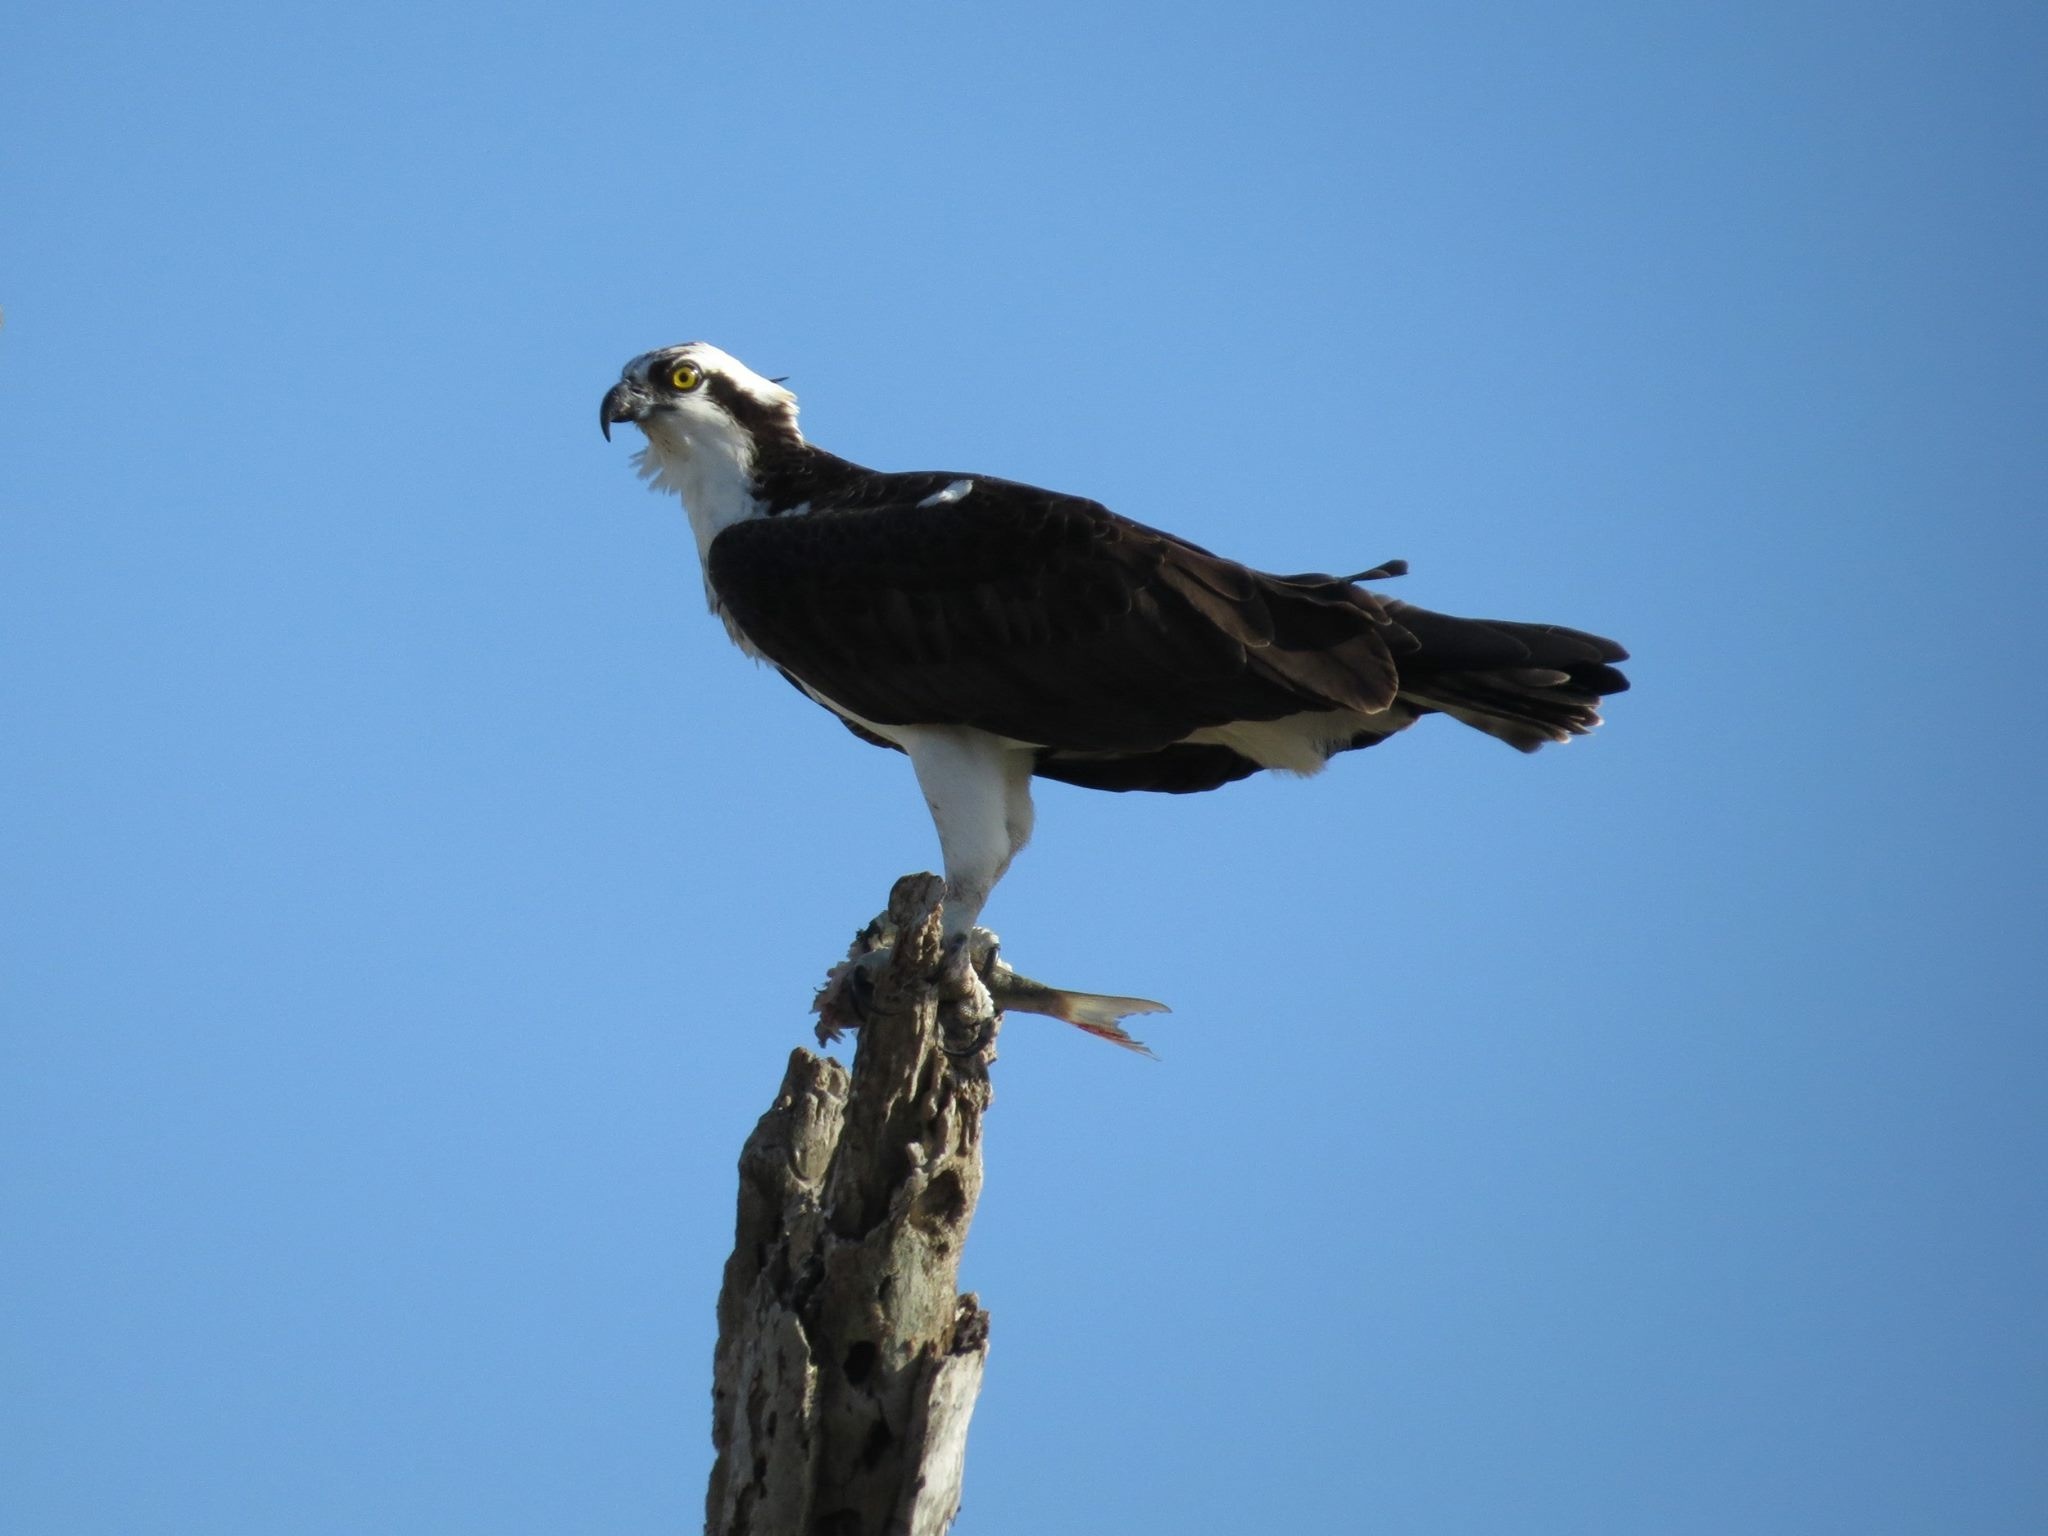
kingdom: Animalia
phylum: Chordata
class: Aves
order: Accipitriformes
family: Pandionidae
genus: Pandion
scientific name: Pandion haliaetus
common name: Osprey
